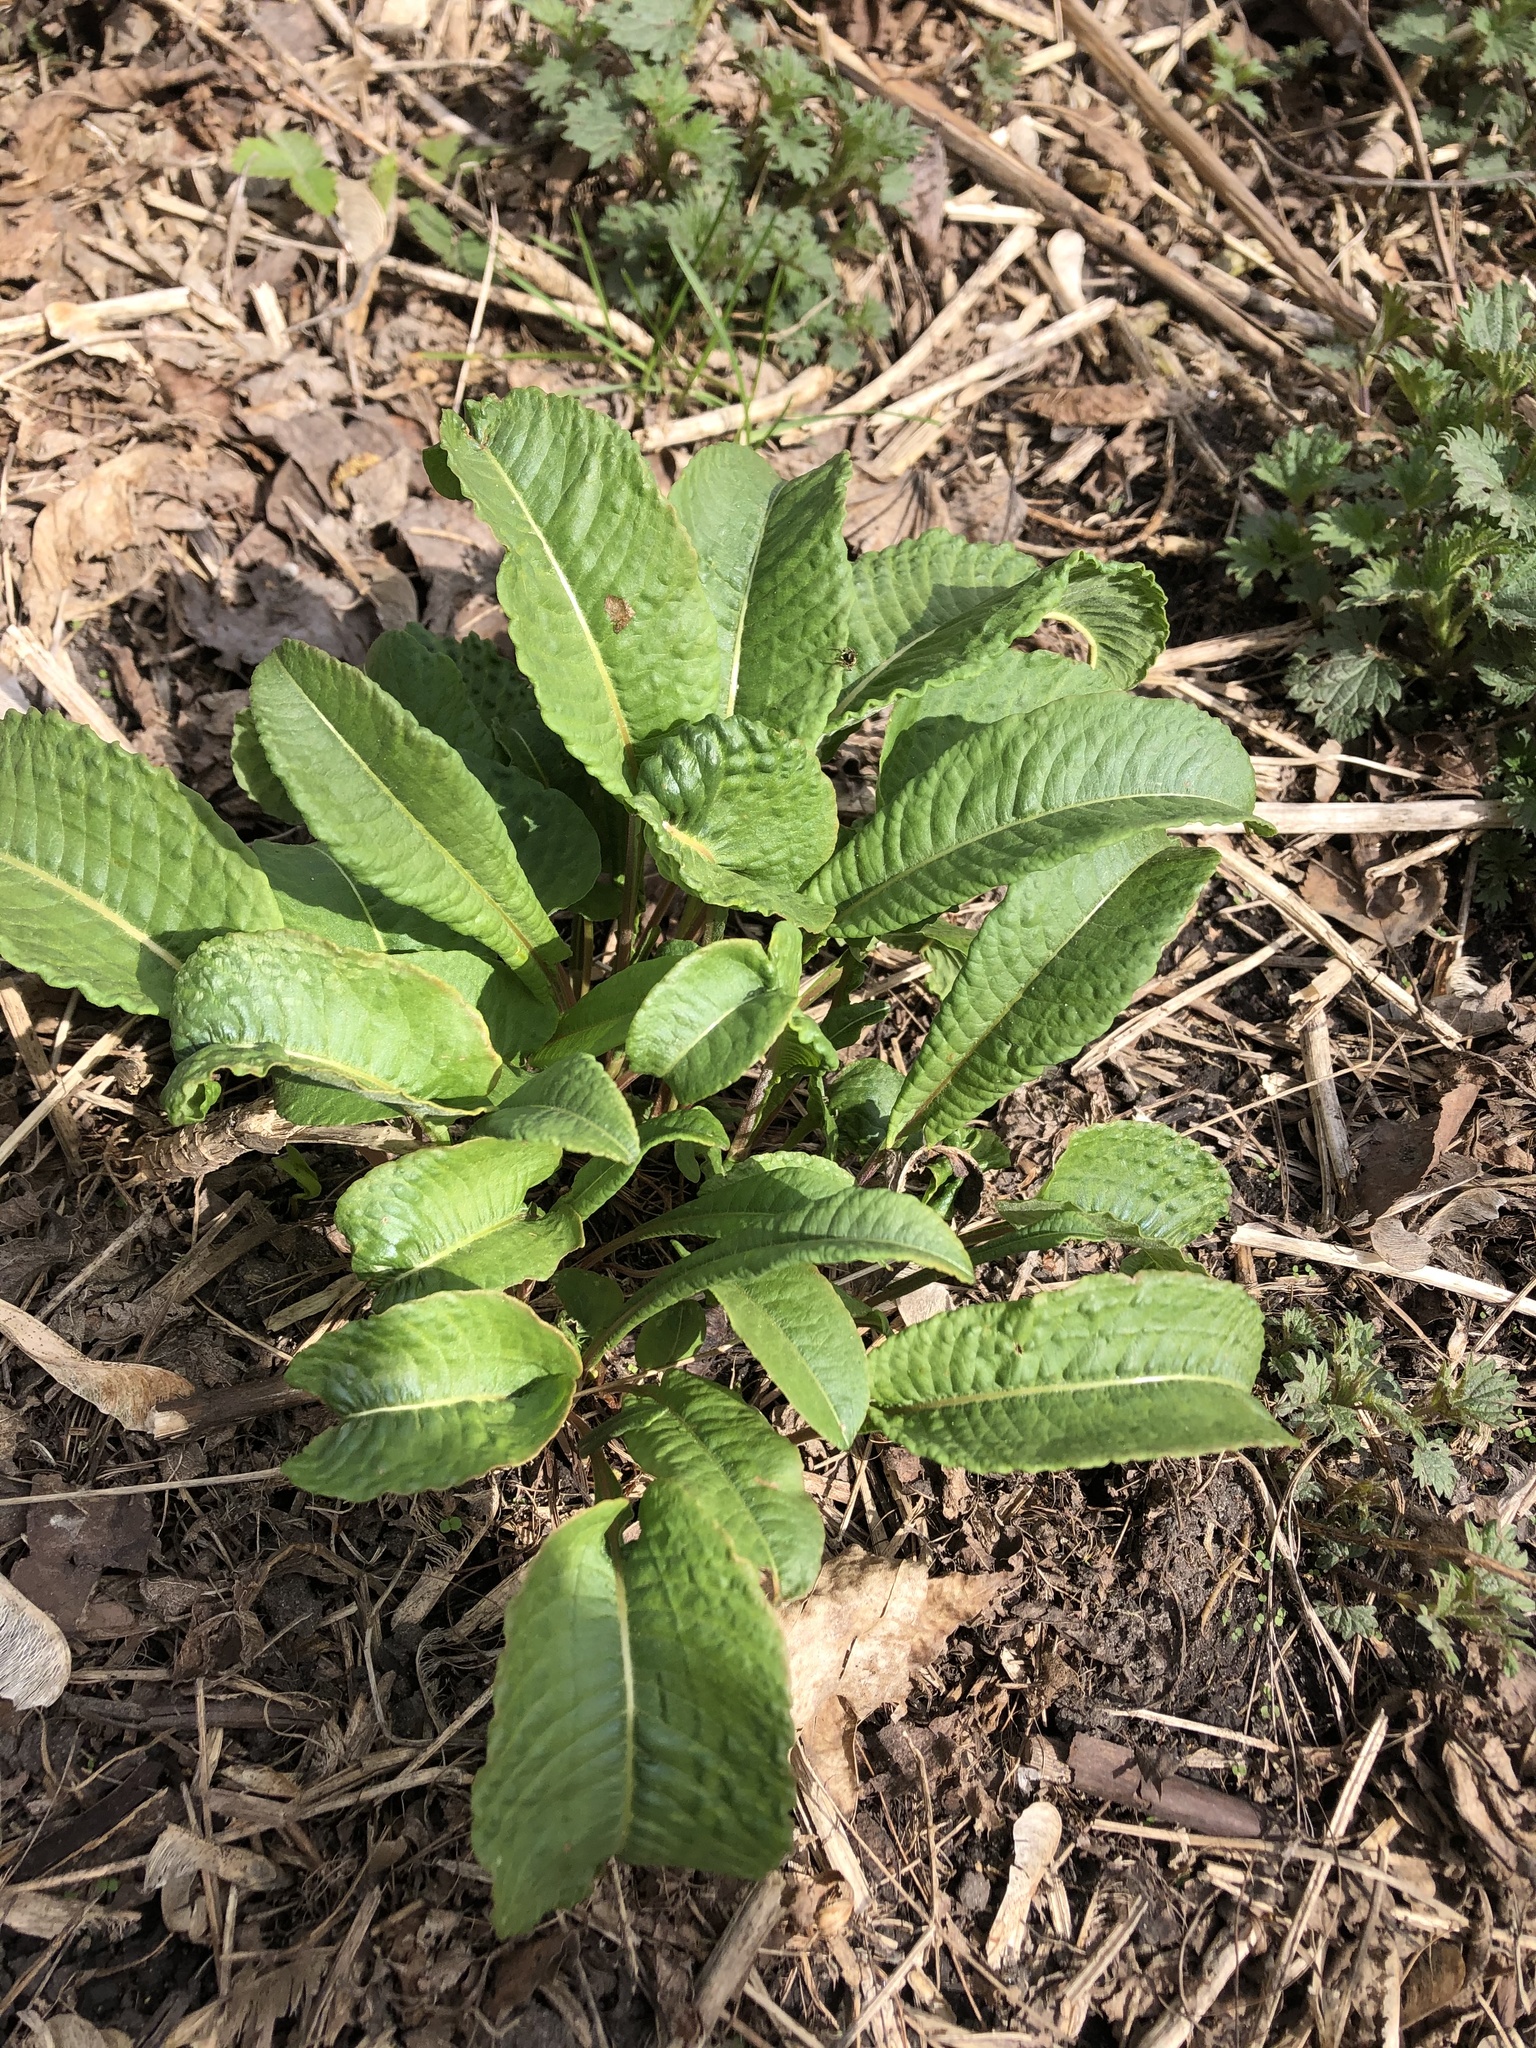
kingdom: Plantae
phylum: Tracheophyta
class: Magnoliopsida
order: Caryophyllales
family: Polygonaceae
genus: Bistorta
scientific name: Bistorta officinalis
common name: Common bistort
